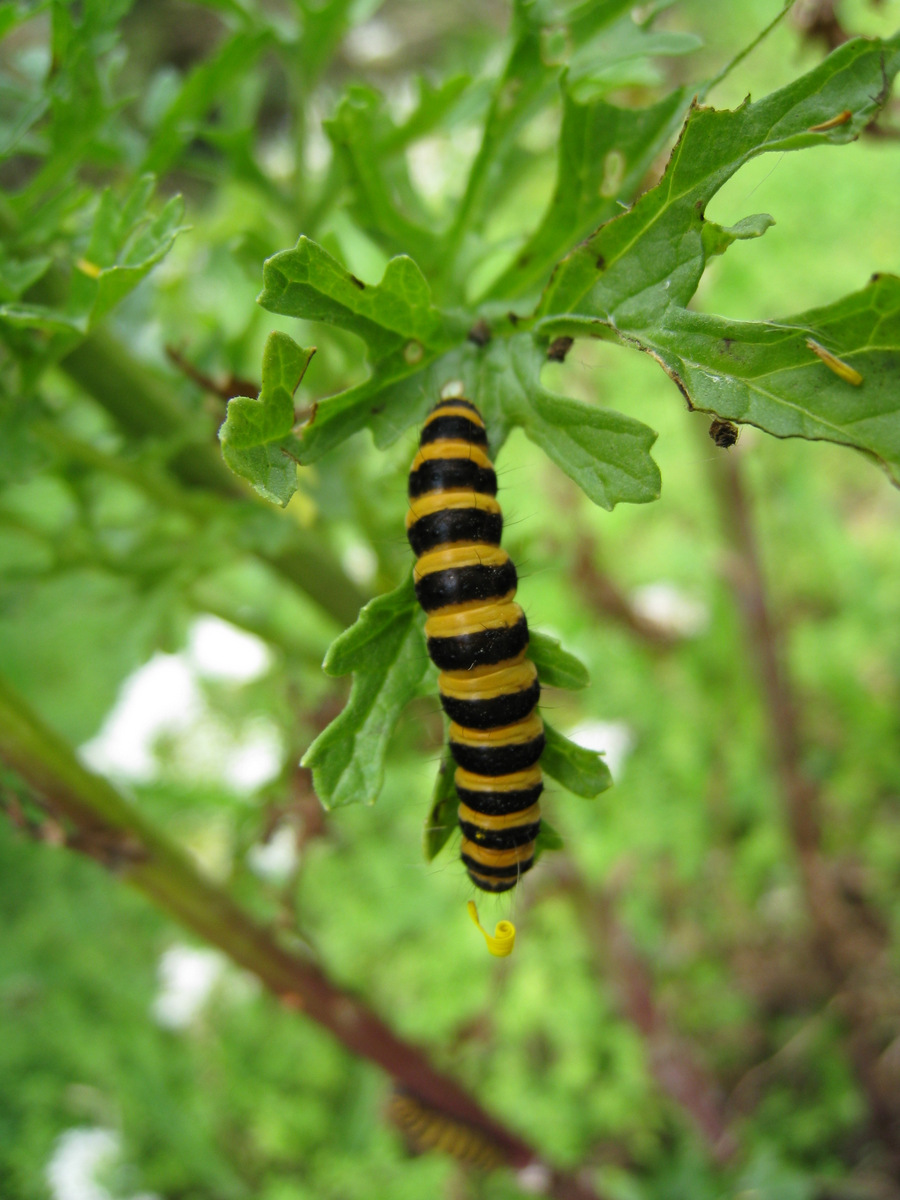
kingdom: Animalia
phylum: Arthropoda
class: Insecta
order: Lepidoptera
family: Erebidae
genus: Tyria
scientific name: Tyria jacobaeae
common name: Cinnabar
